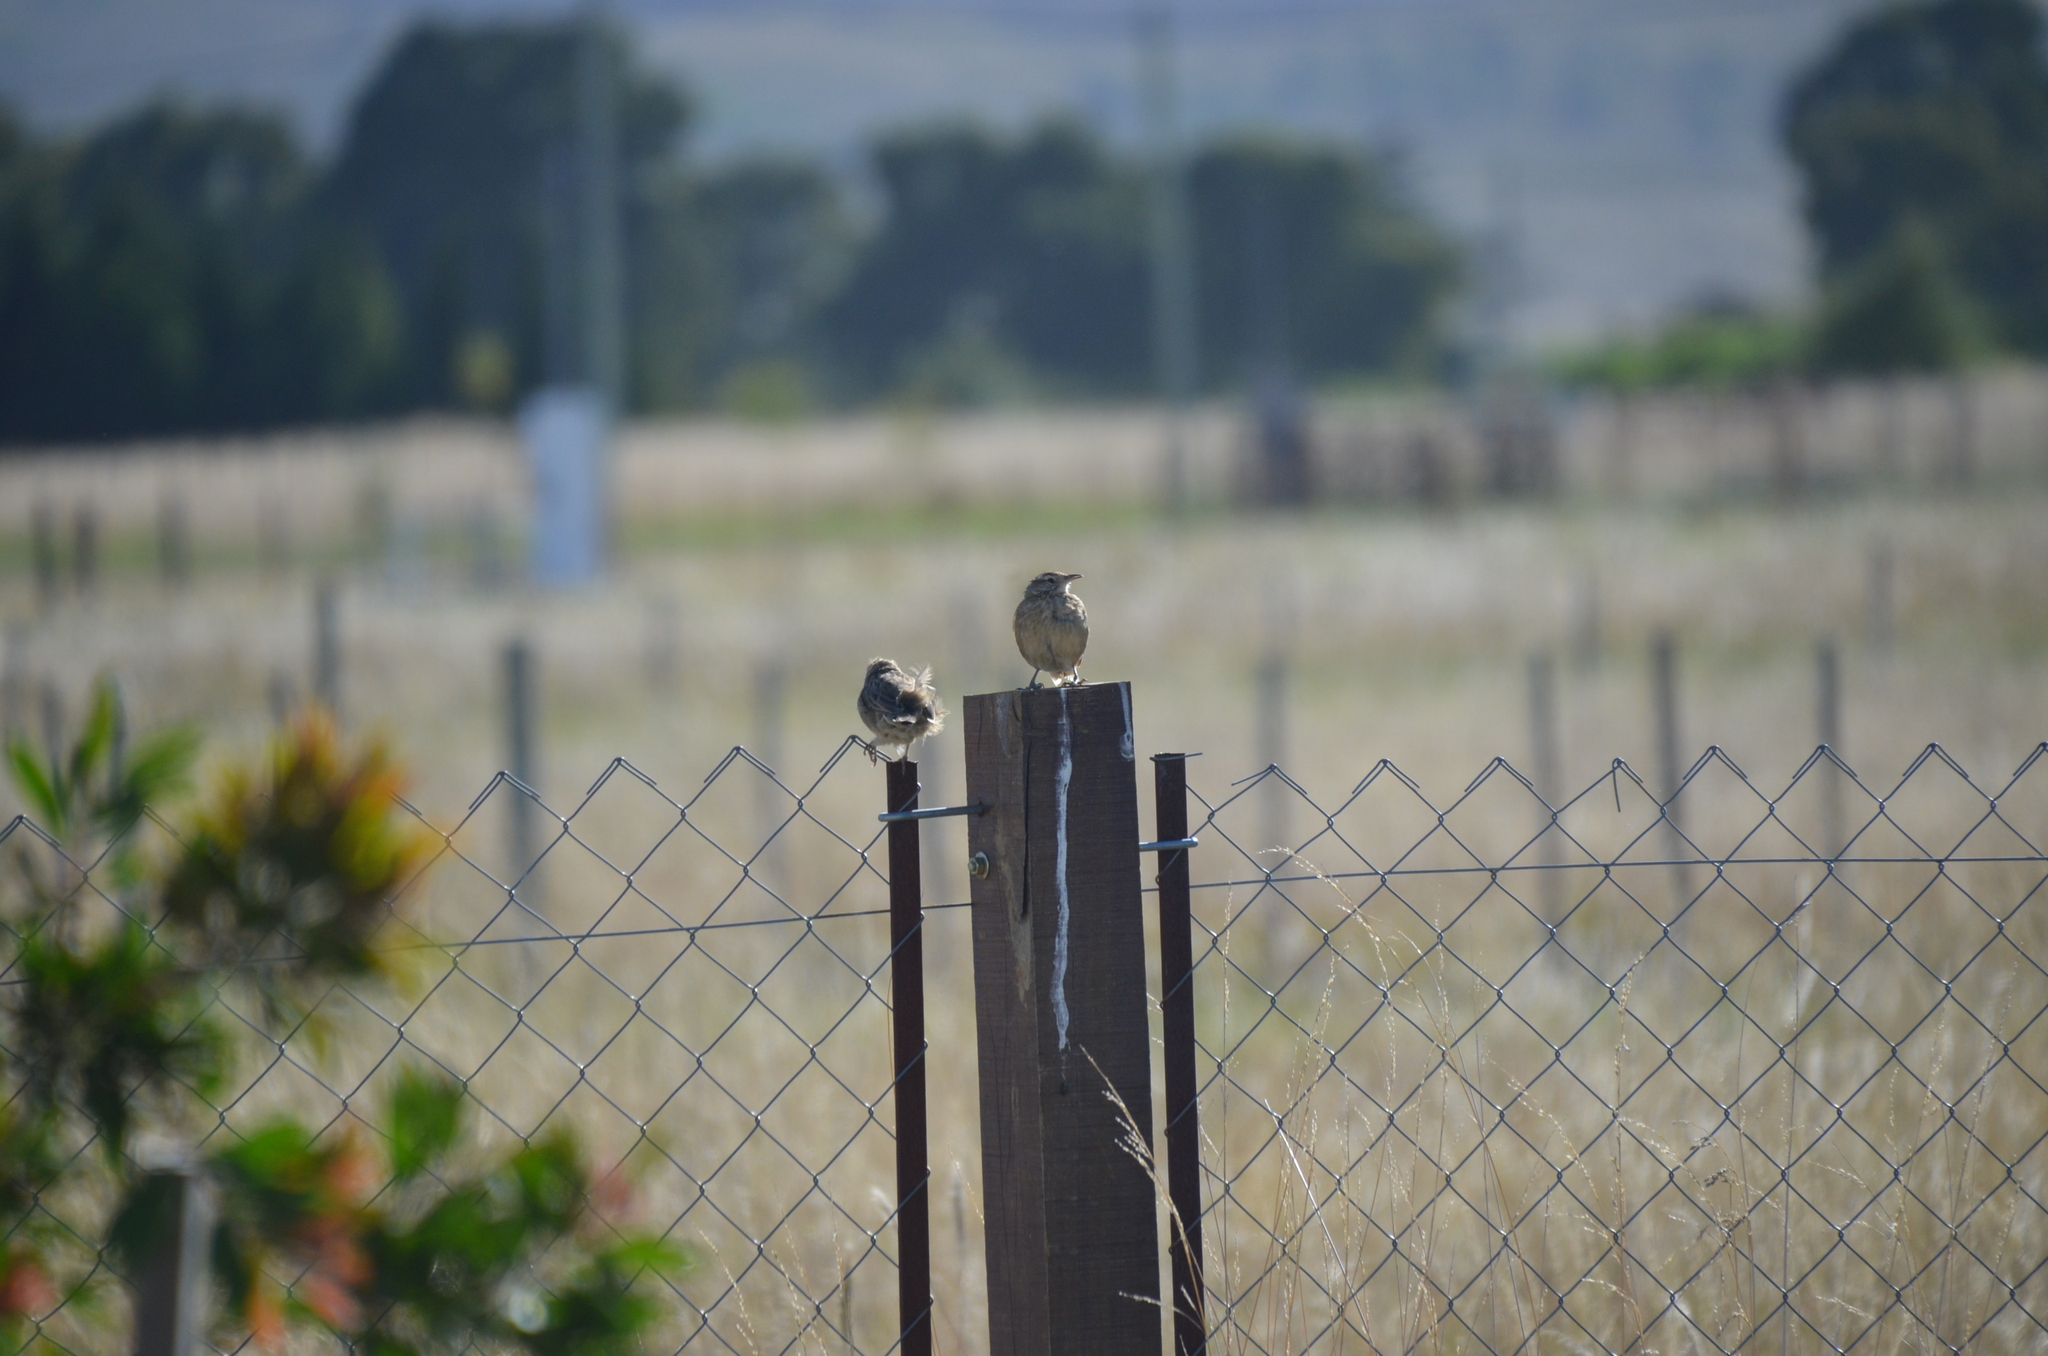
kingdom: Animalia
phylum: Chordata
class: Aves
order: Passeriformes
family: Furnariidae
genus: Anumbius
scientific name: Anumbius annumbi
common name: Firewood-gatherer
